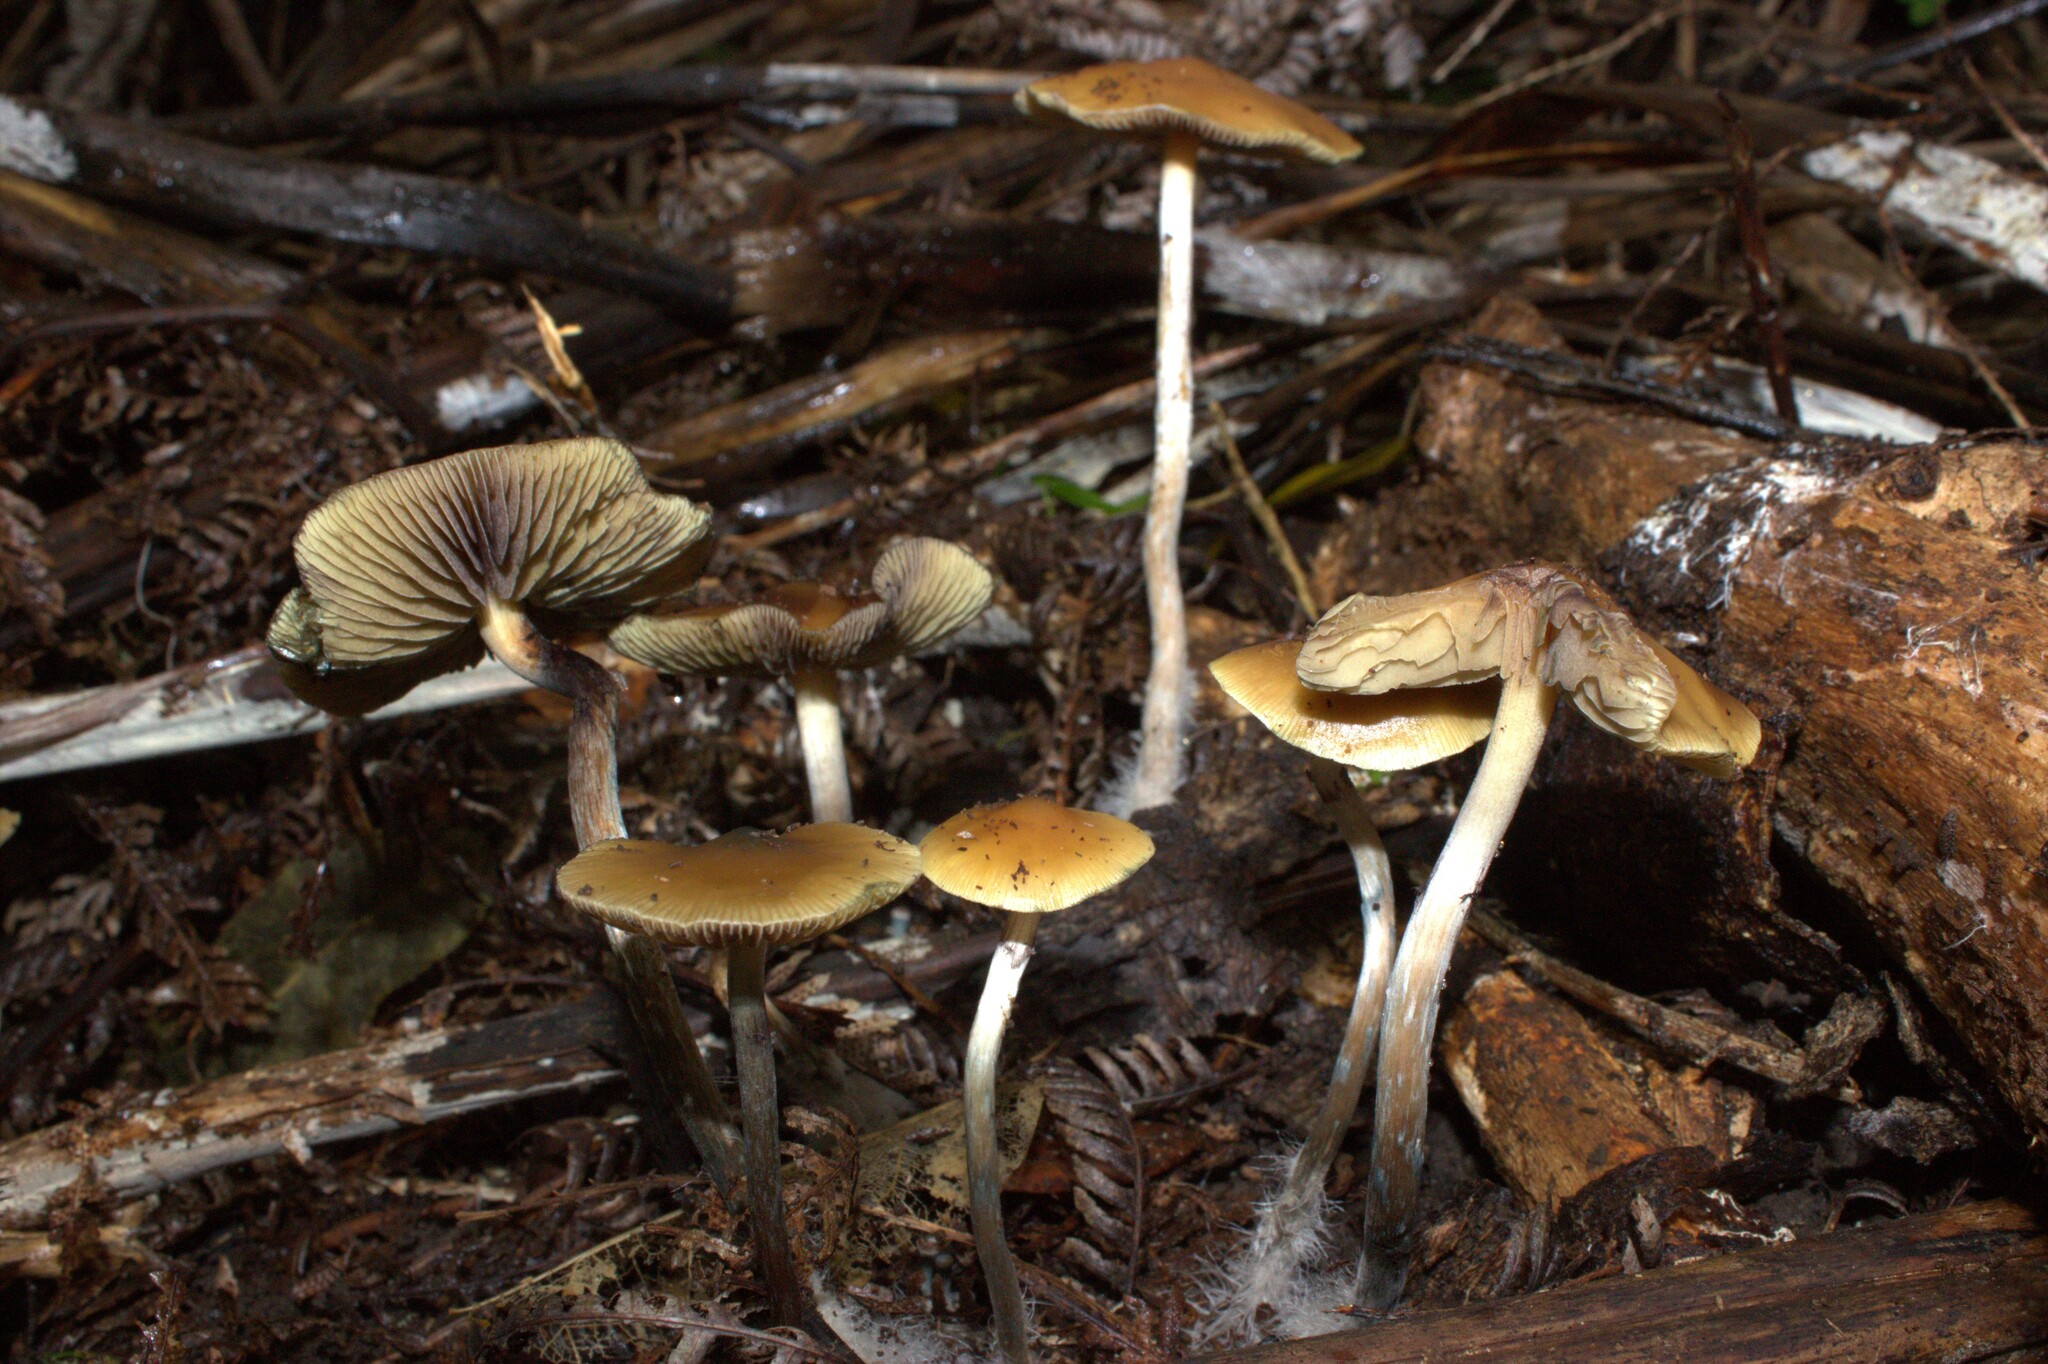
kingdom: Fungi
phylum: Basidiomycota
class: Agaricomycetes
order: Agaricales
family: Hymenogastraceae
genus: Psilocybe
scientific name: Psilocybe subaeruginosa
